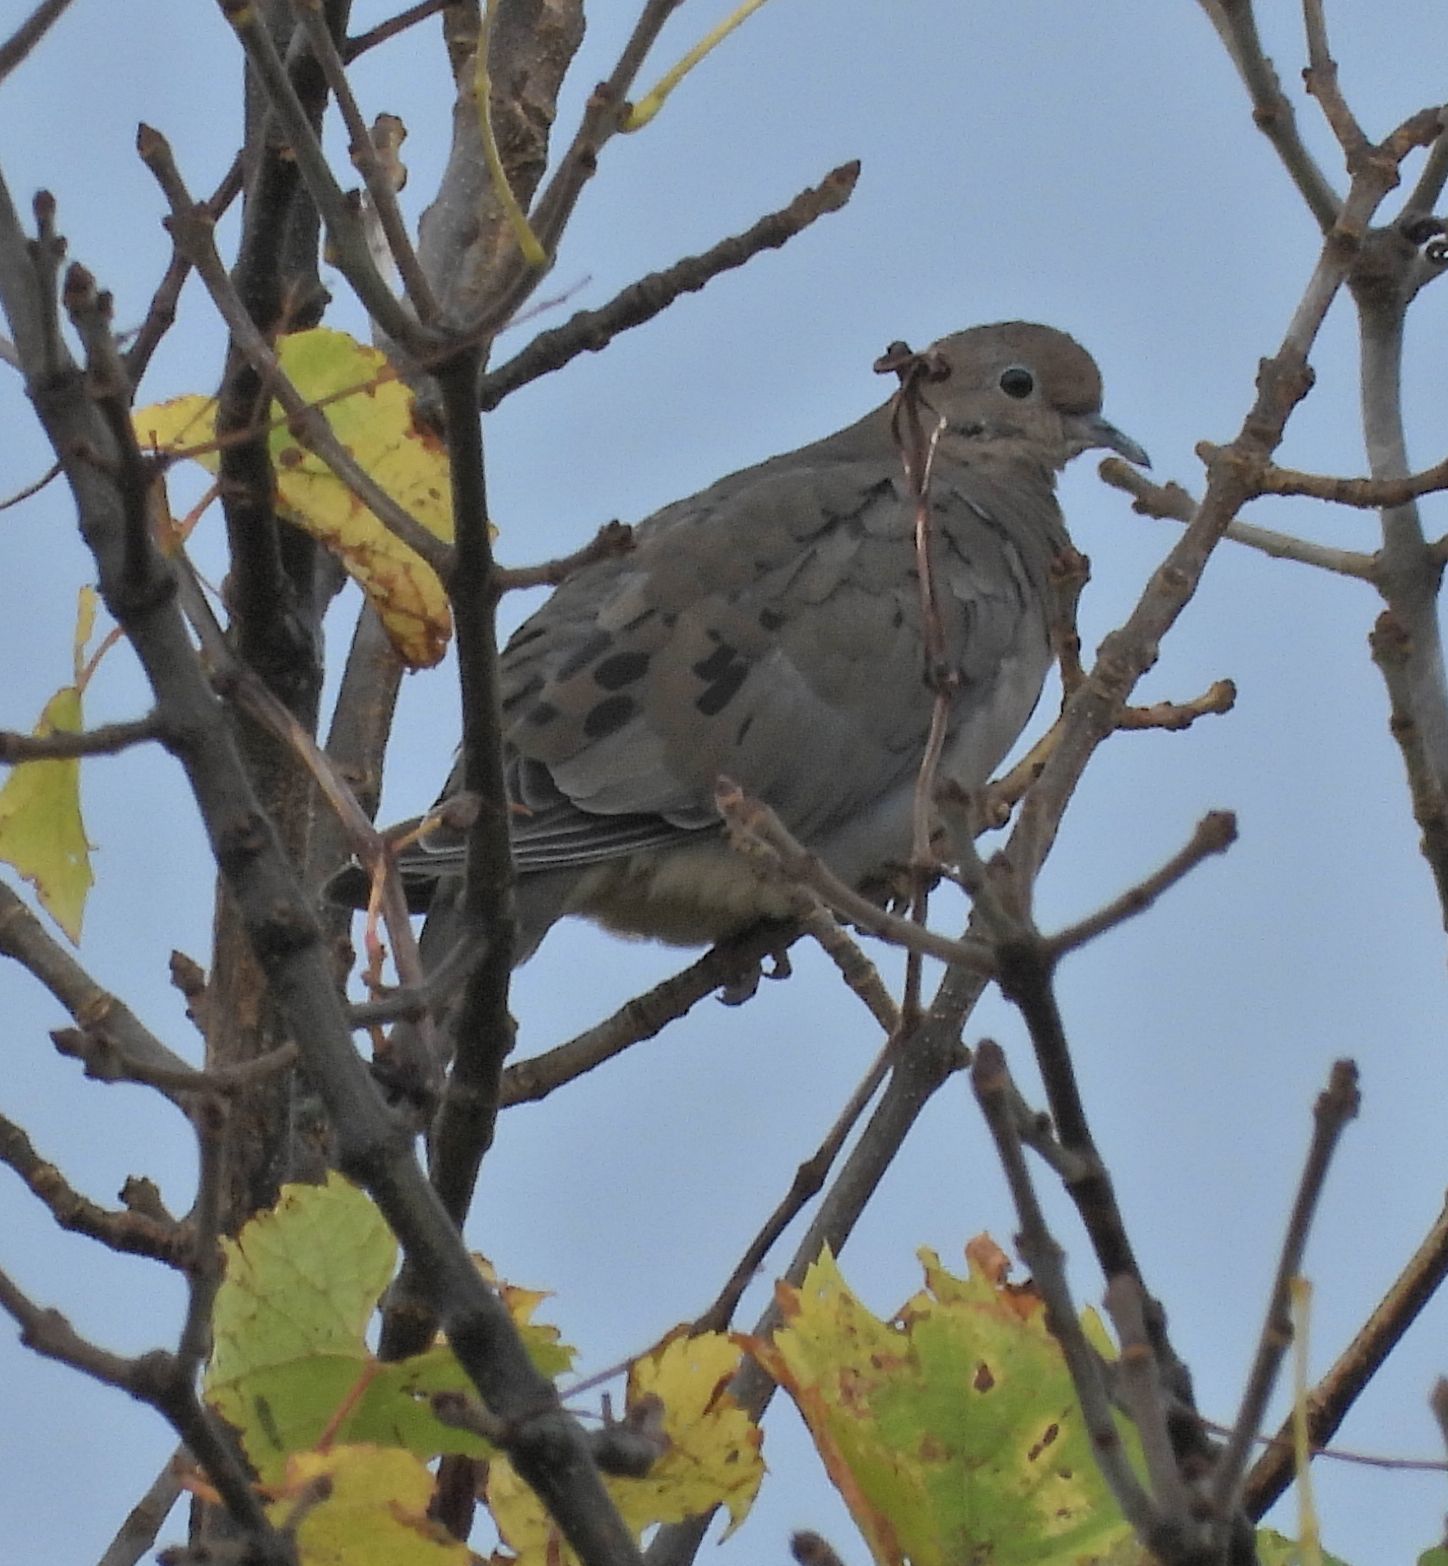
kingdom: Animalia
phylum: Chordata
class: Aves
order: Columbiformes
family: Columbidae
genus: Zenaida
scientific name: Zenaida macroura
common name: Mourning dove
